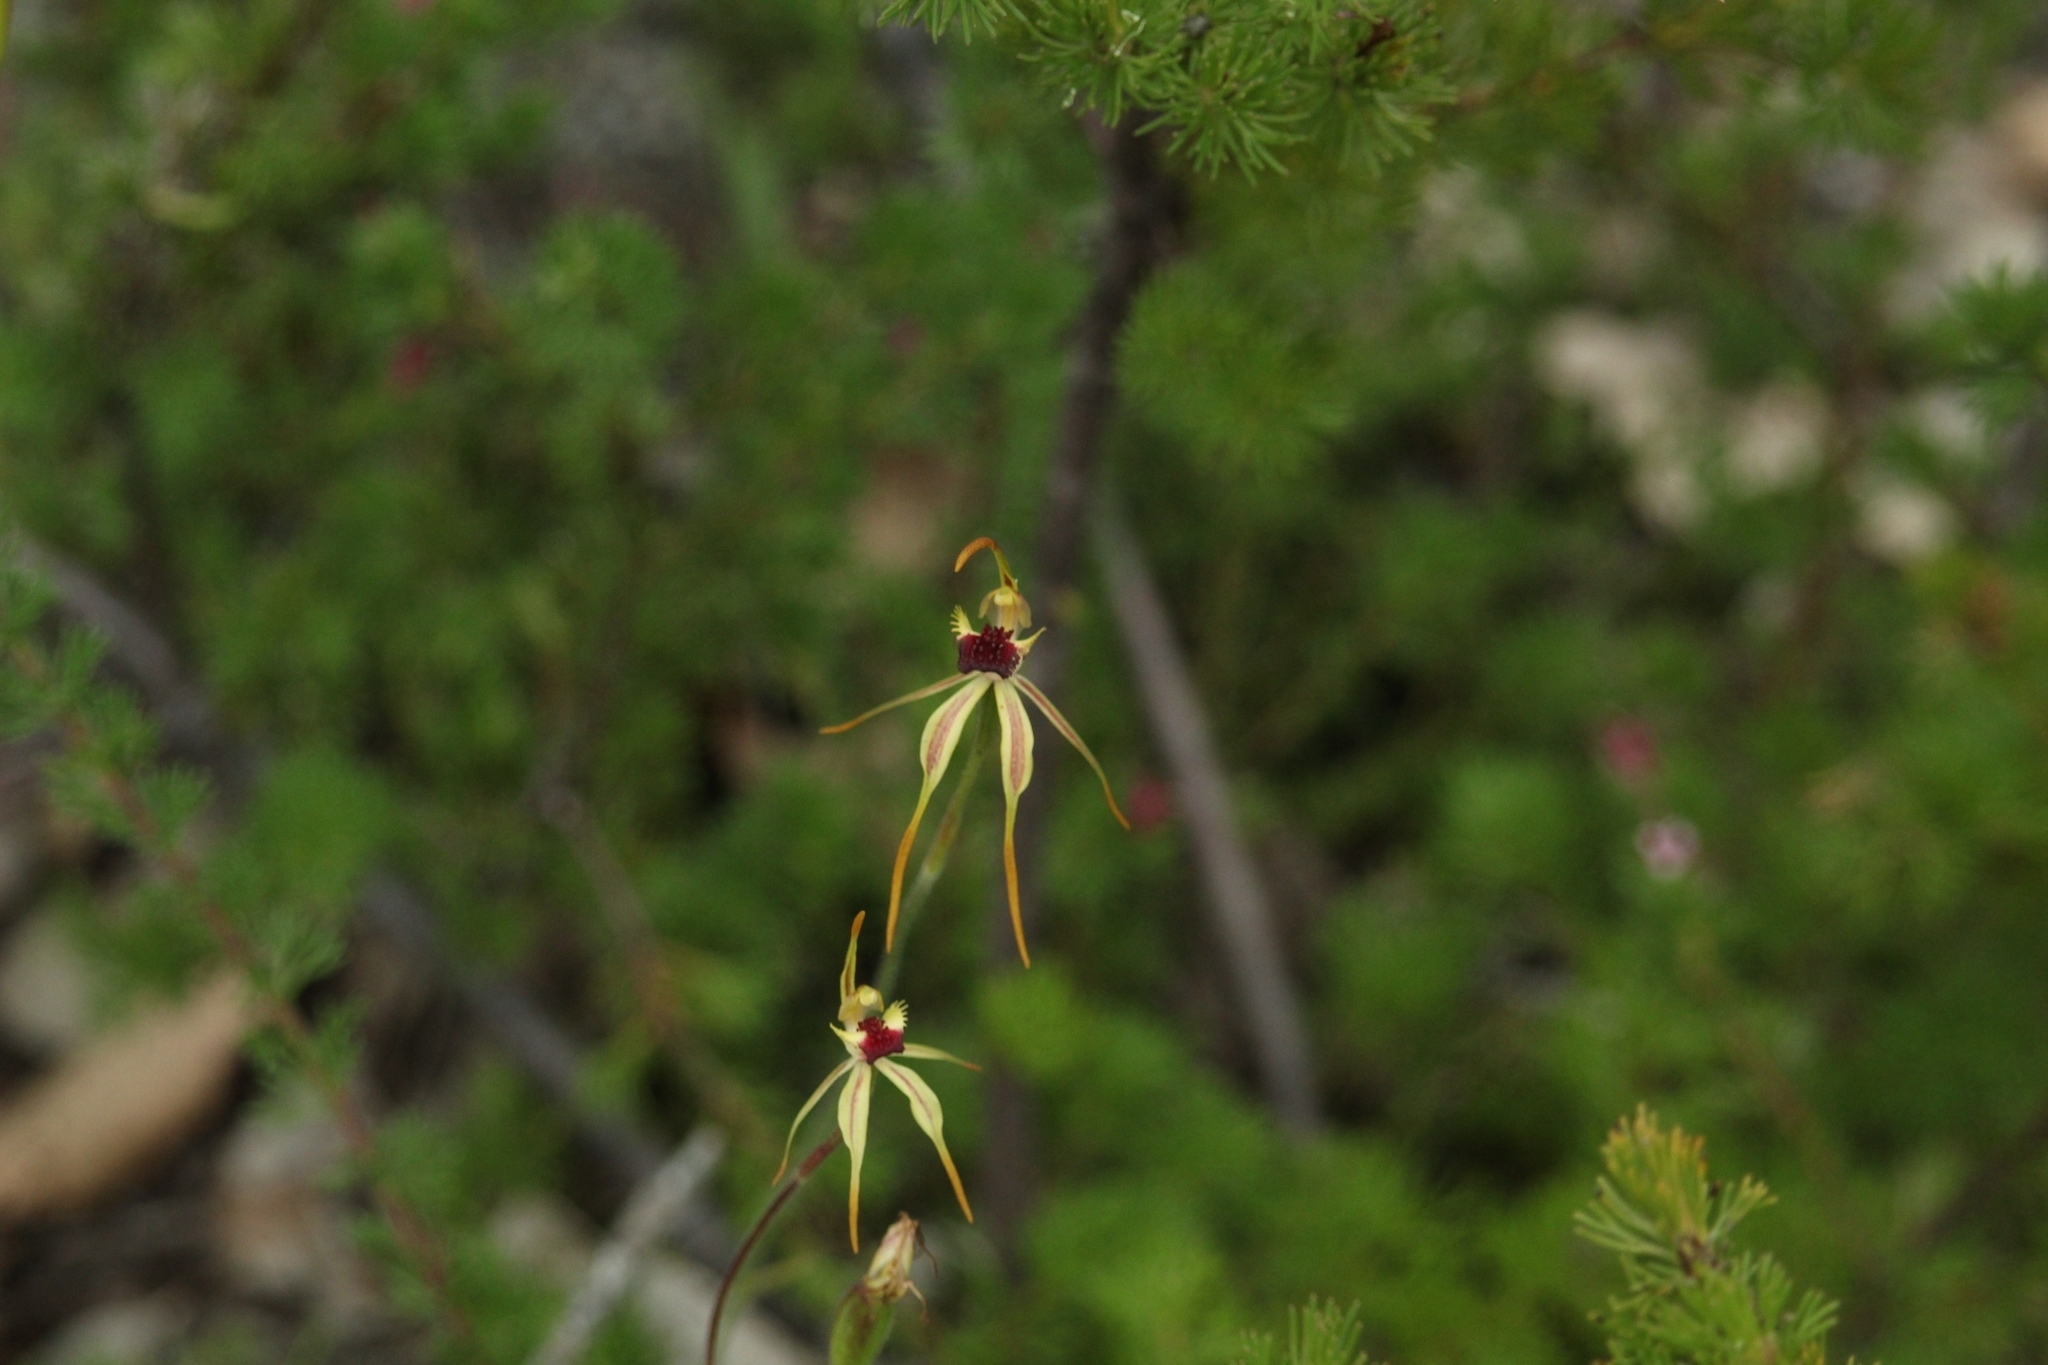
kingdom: Plantae
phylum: Tracheophyta
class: Liliopsida
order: Asparagales
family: Orchidaceae
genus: Caladenia
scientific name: Caladenia longiclavata
